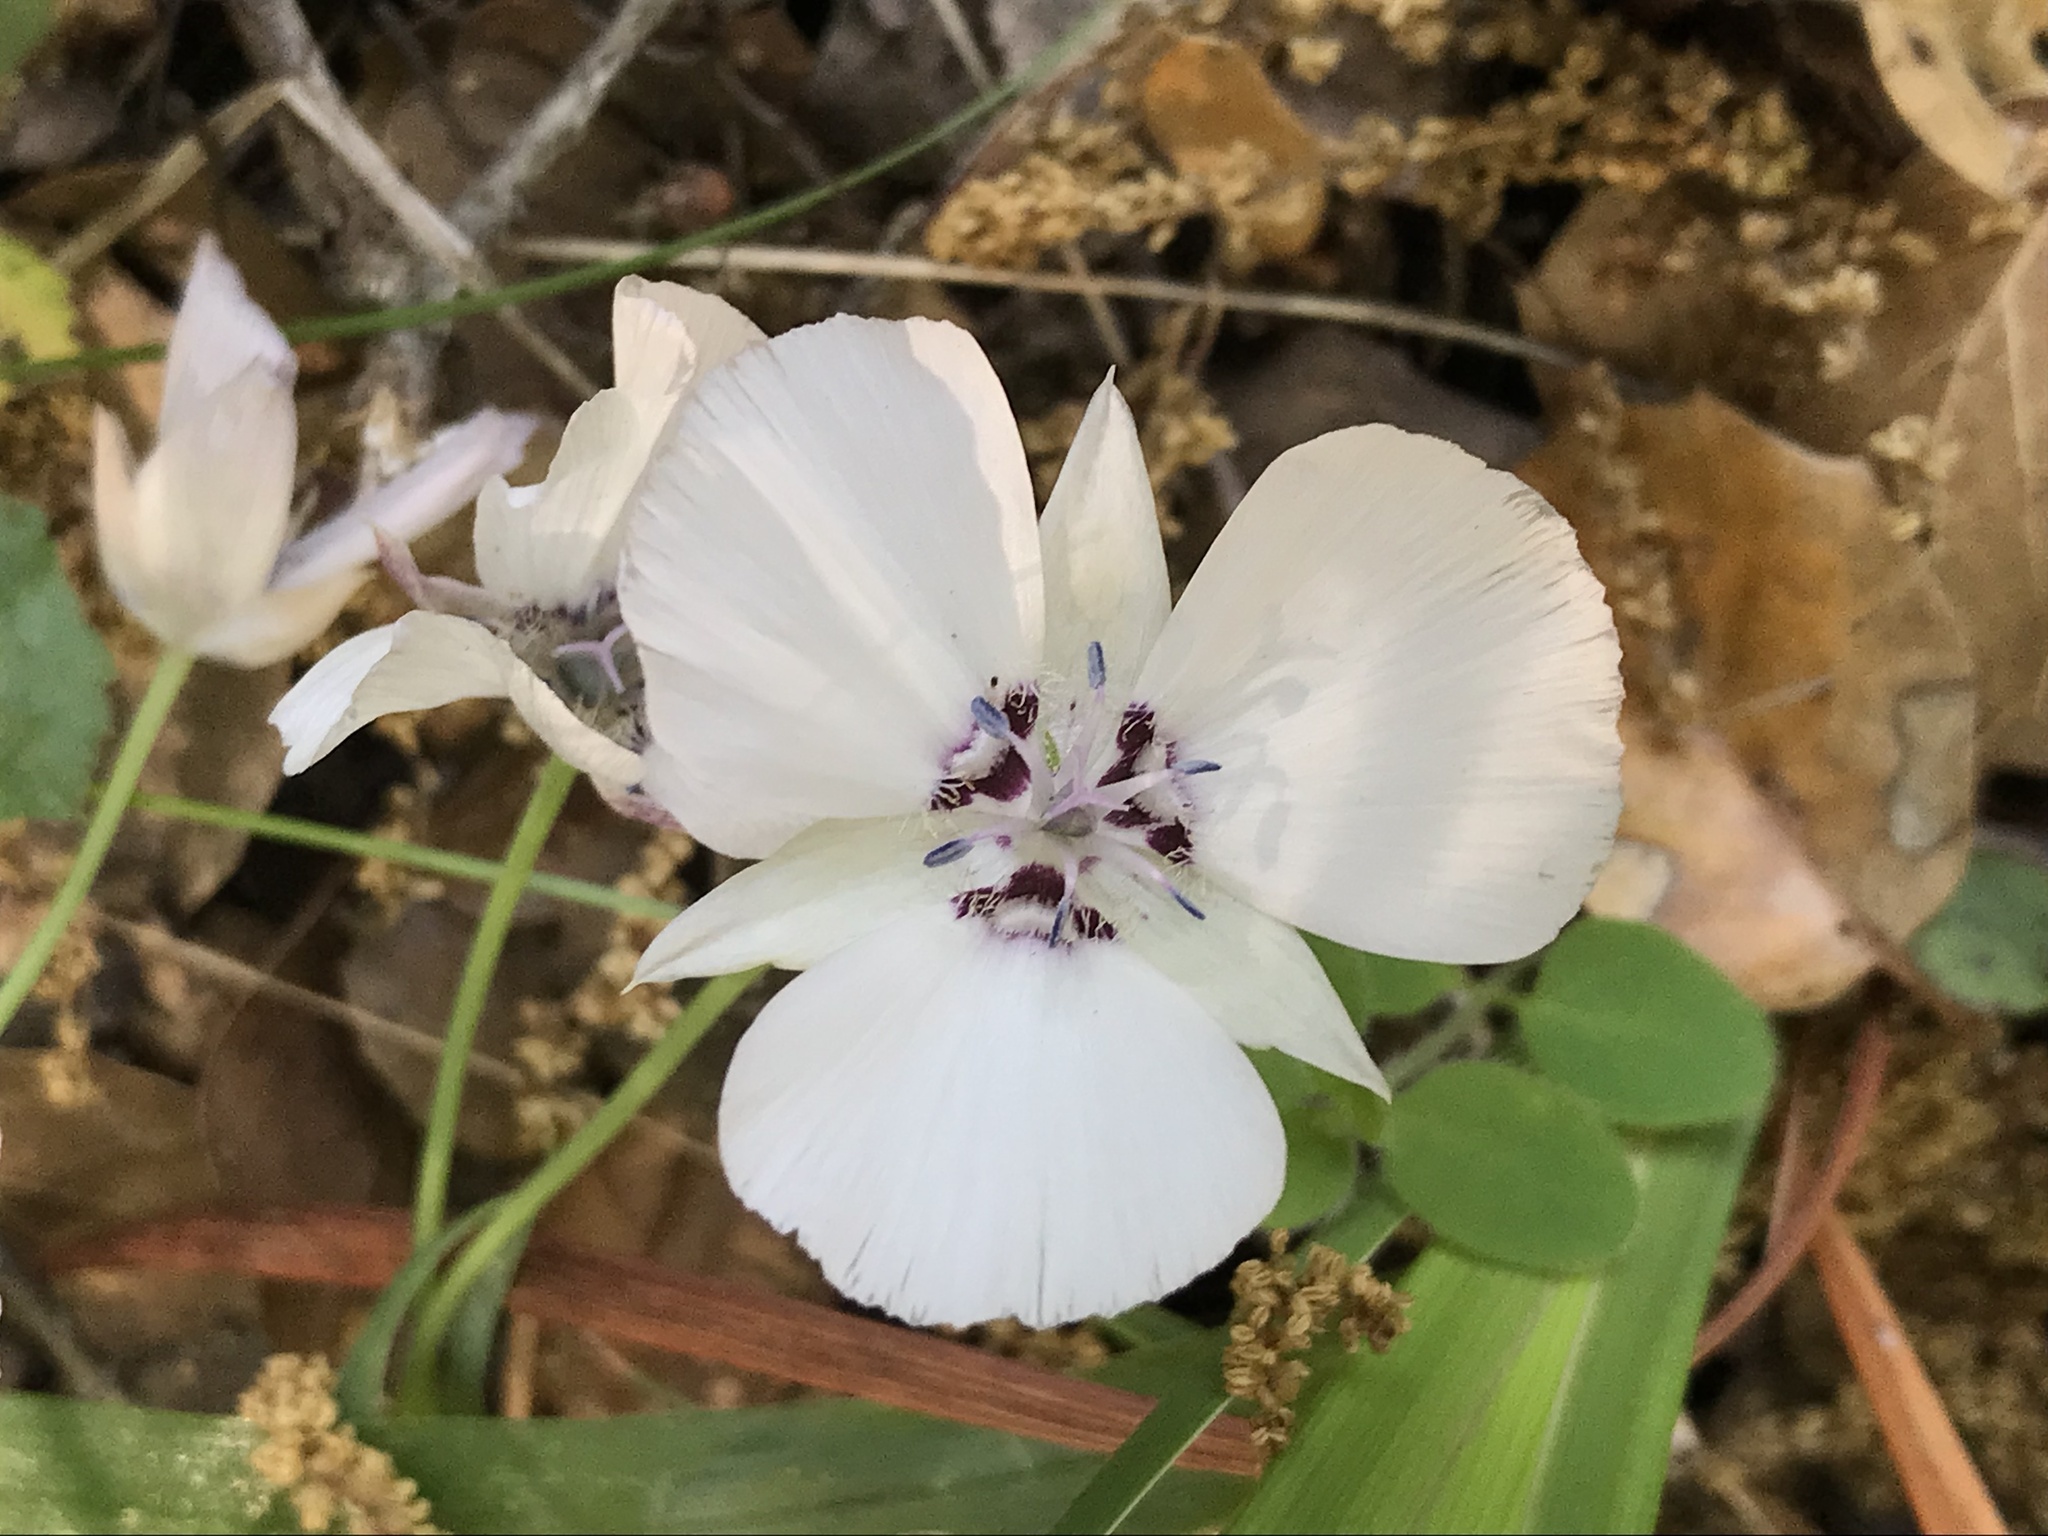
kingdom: Plantae
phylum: Tracheophyta
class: Liliopsida
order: Liliales
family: Liliaceae
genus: Calochortus
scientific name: Calochortus umbellatus
